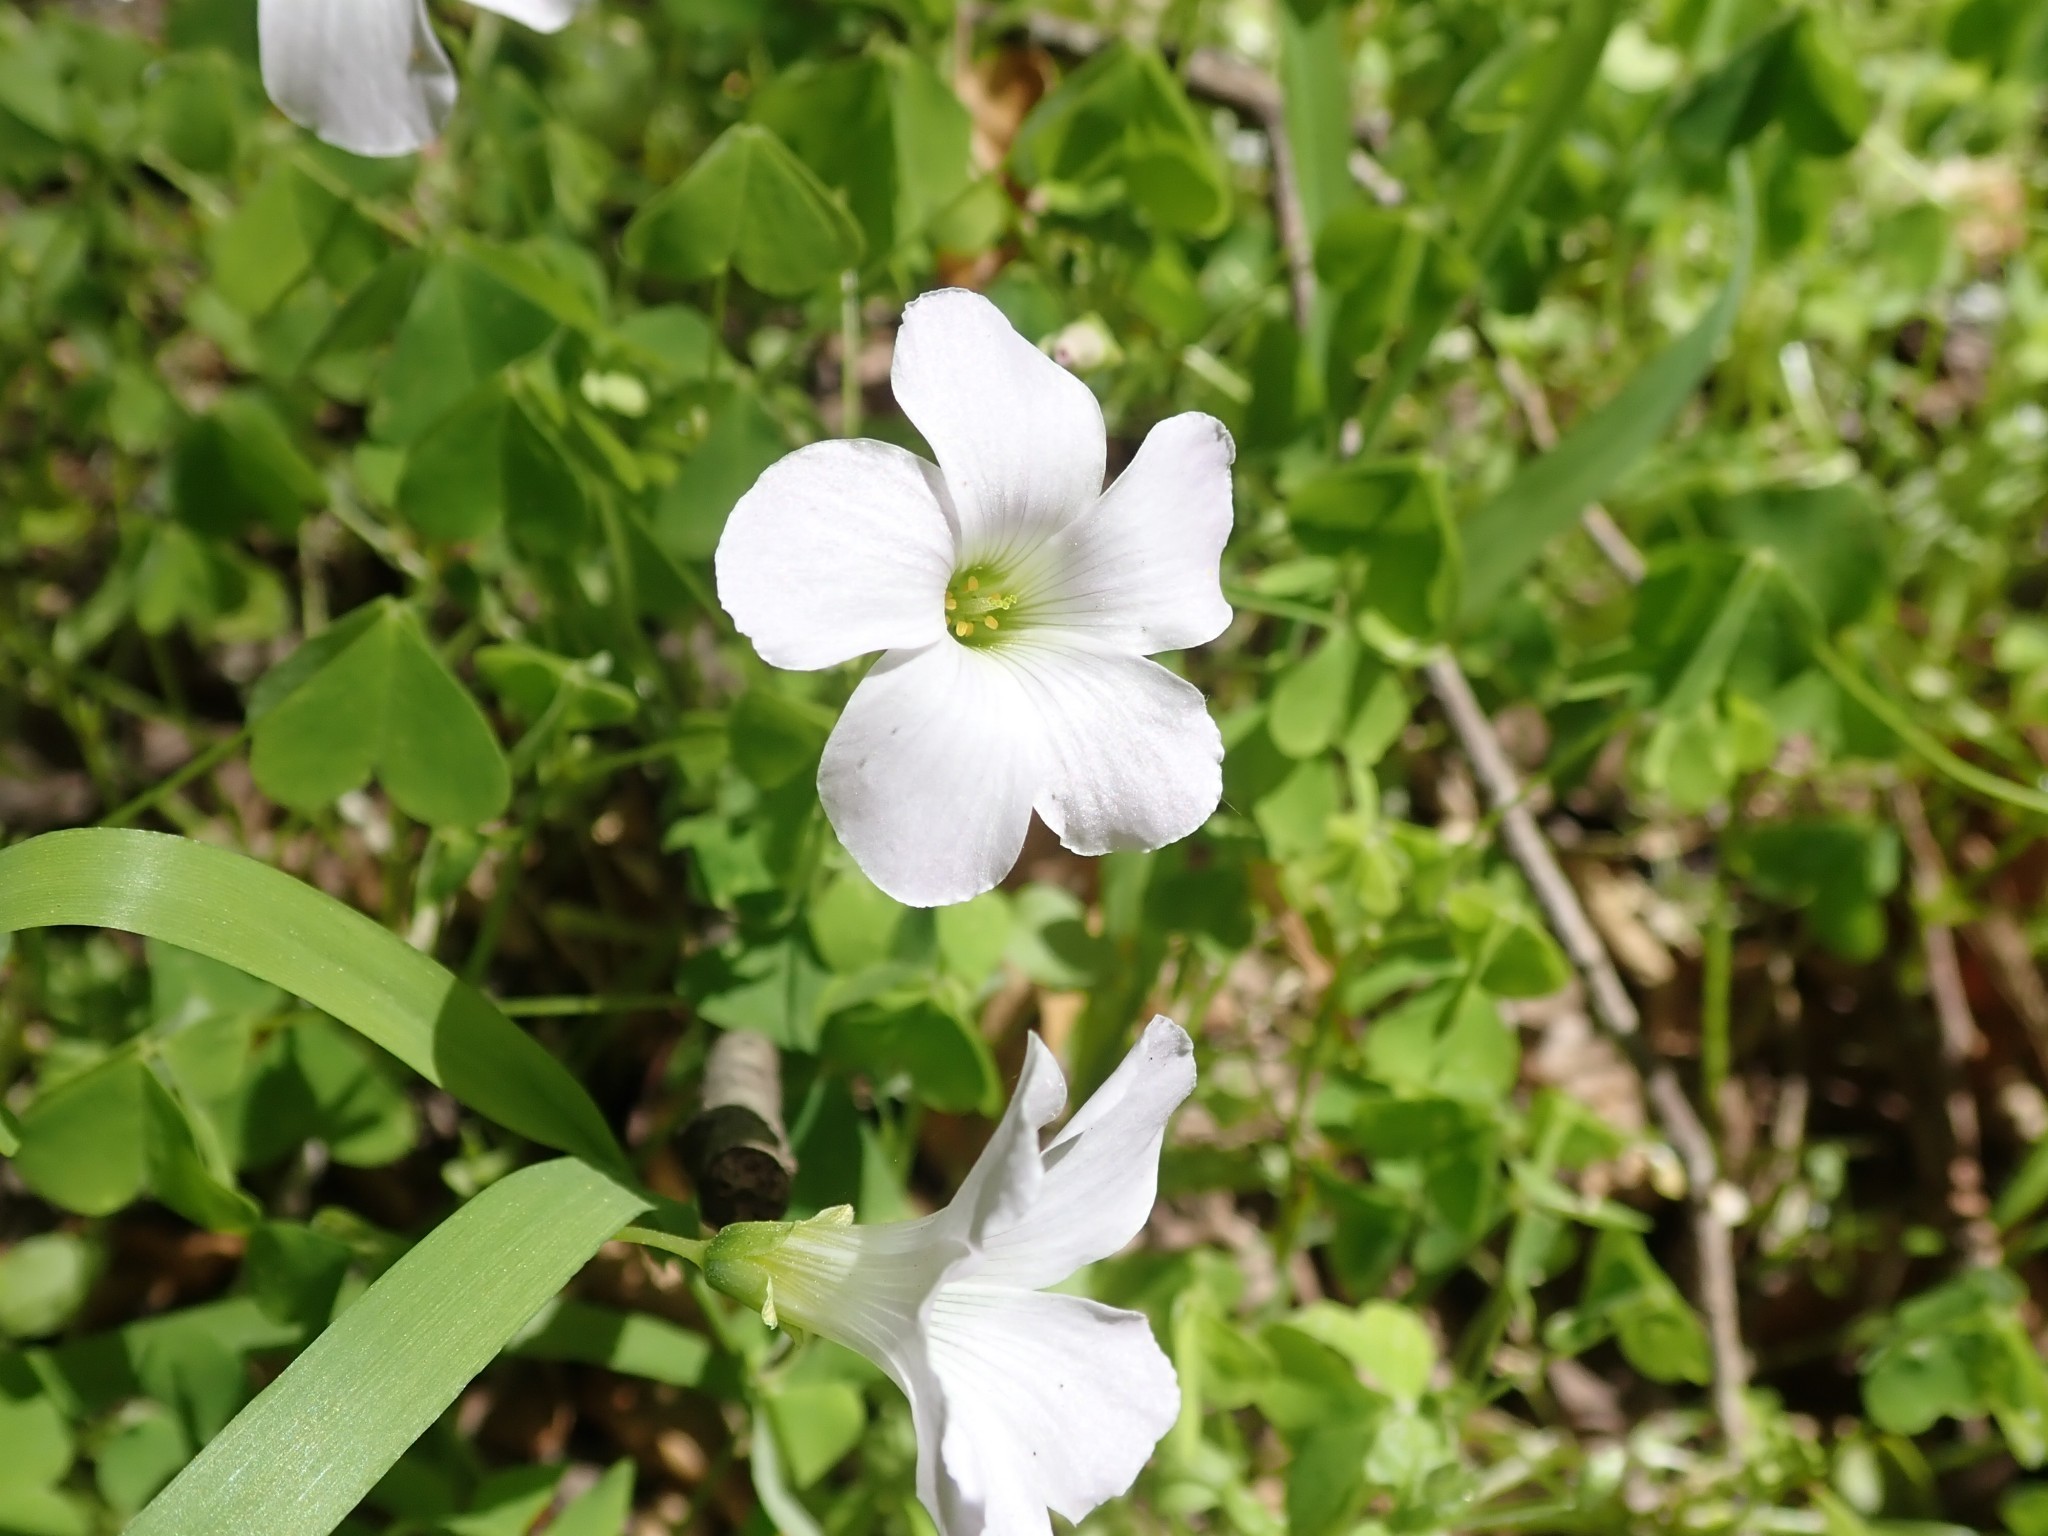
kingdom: Plantae
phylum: Tracheophyta
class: Magnoliopsida
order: Oxalidales
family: Oxalidaceae
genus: Oxalis
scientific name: Oxalis incarnata
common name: Pale pink-sorrel
